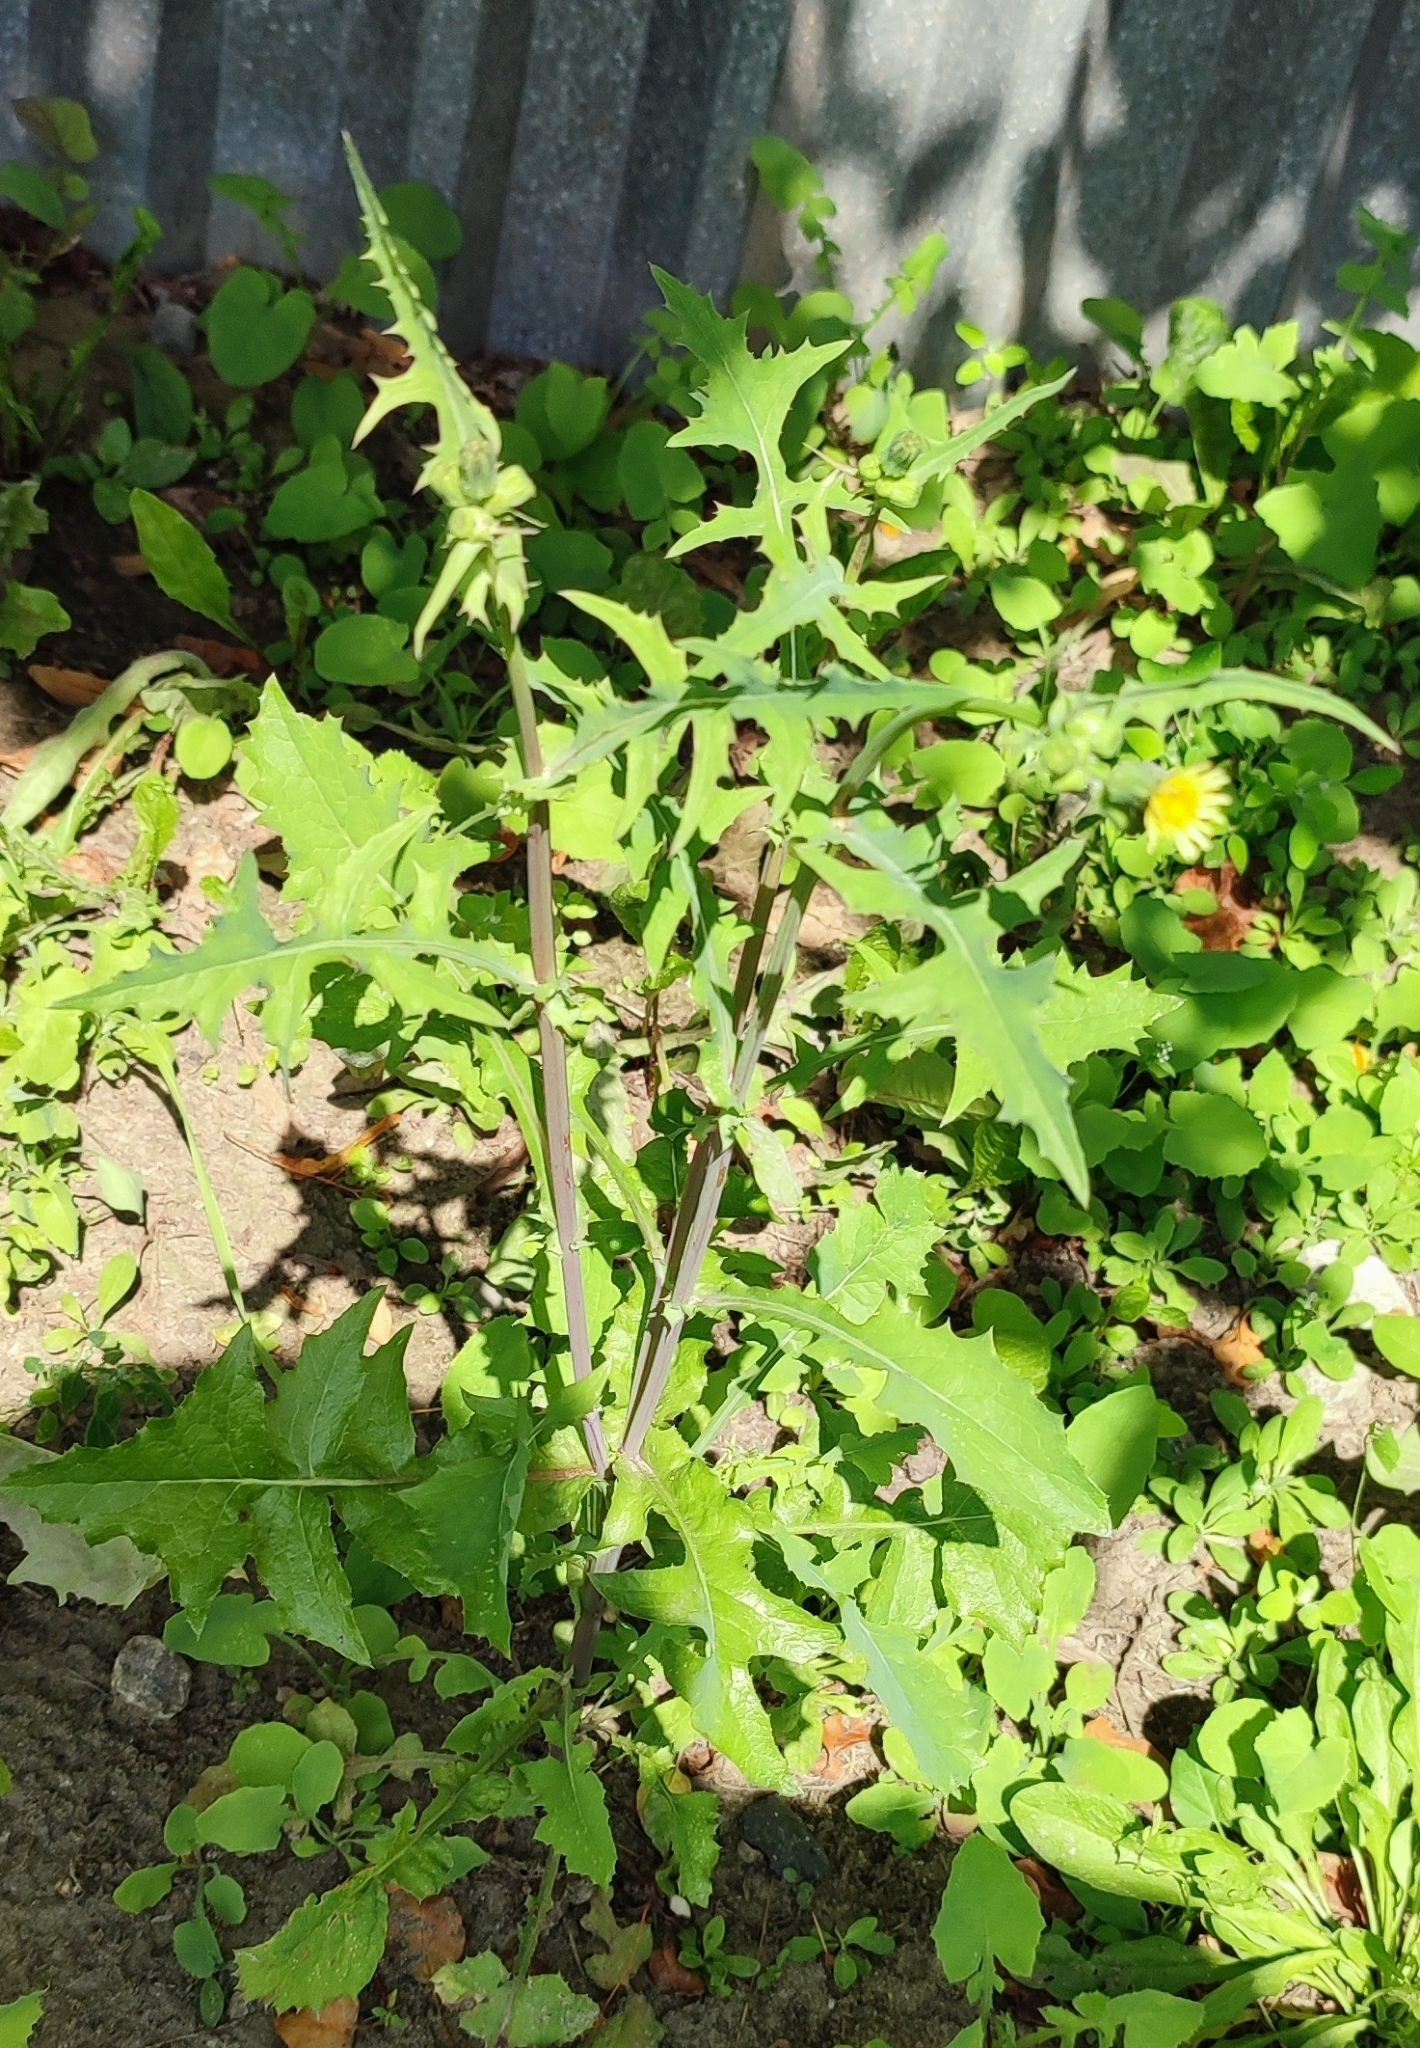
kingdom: Plantae
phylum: Tracheophyta
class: Magnoliopsida
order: Asterales
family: Asteraceae
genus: Sonchus
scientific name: Sonchus oleraceus
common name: Common sowthistle
